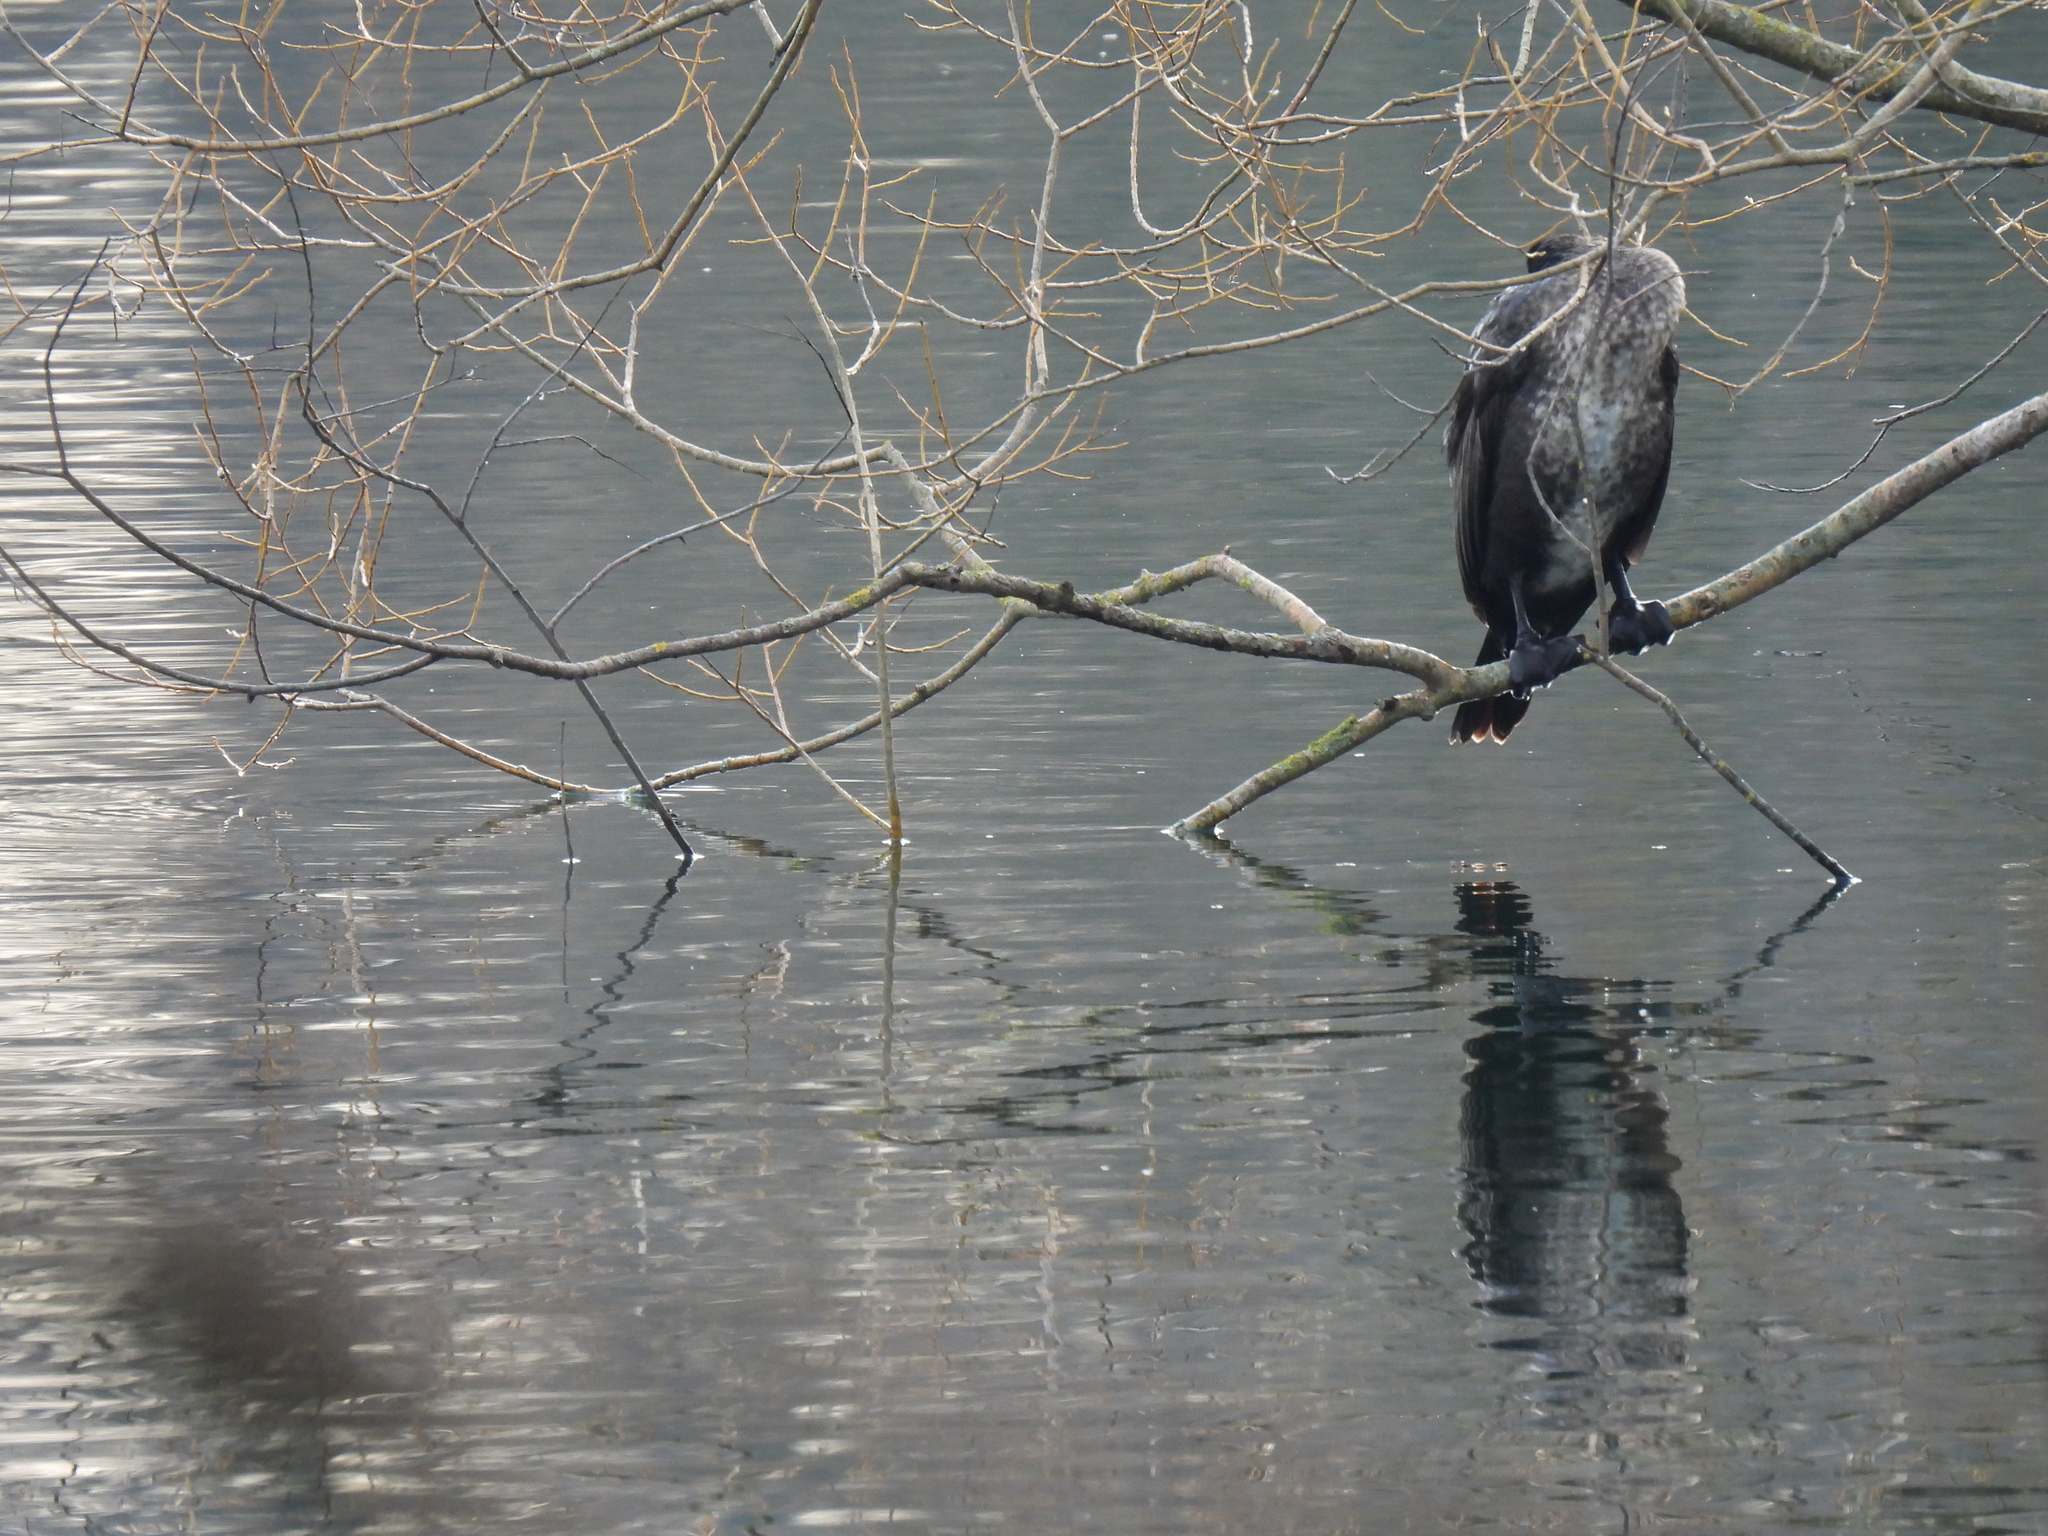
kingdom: Animalia
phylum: Chordata
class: Aves
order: Suliformes
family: Phalacrocoracidae
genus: Phalacrocorax
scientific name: Phalacrocorax carbo
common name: Great cormorant
